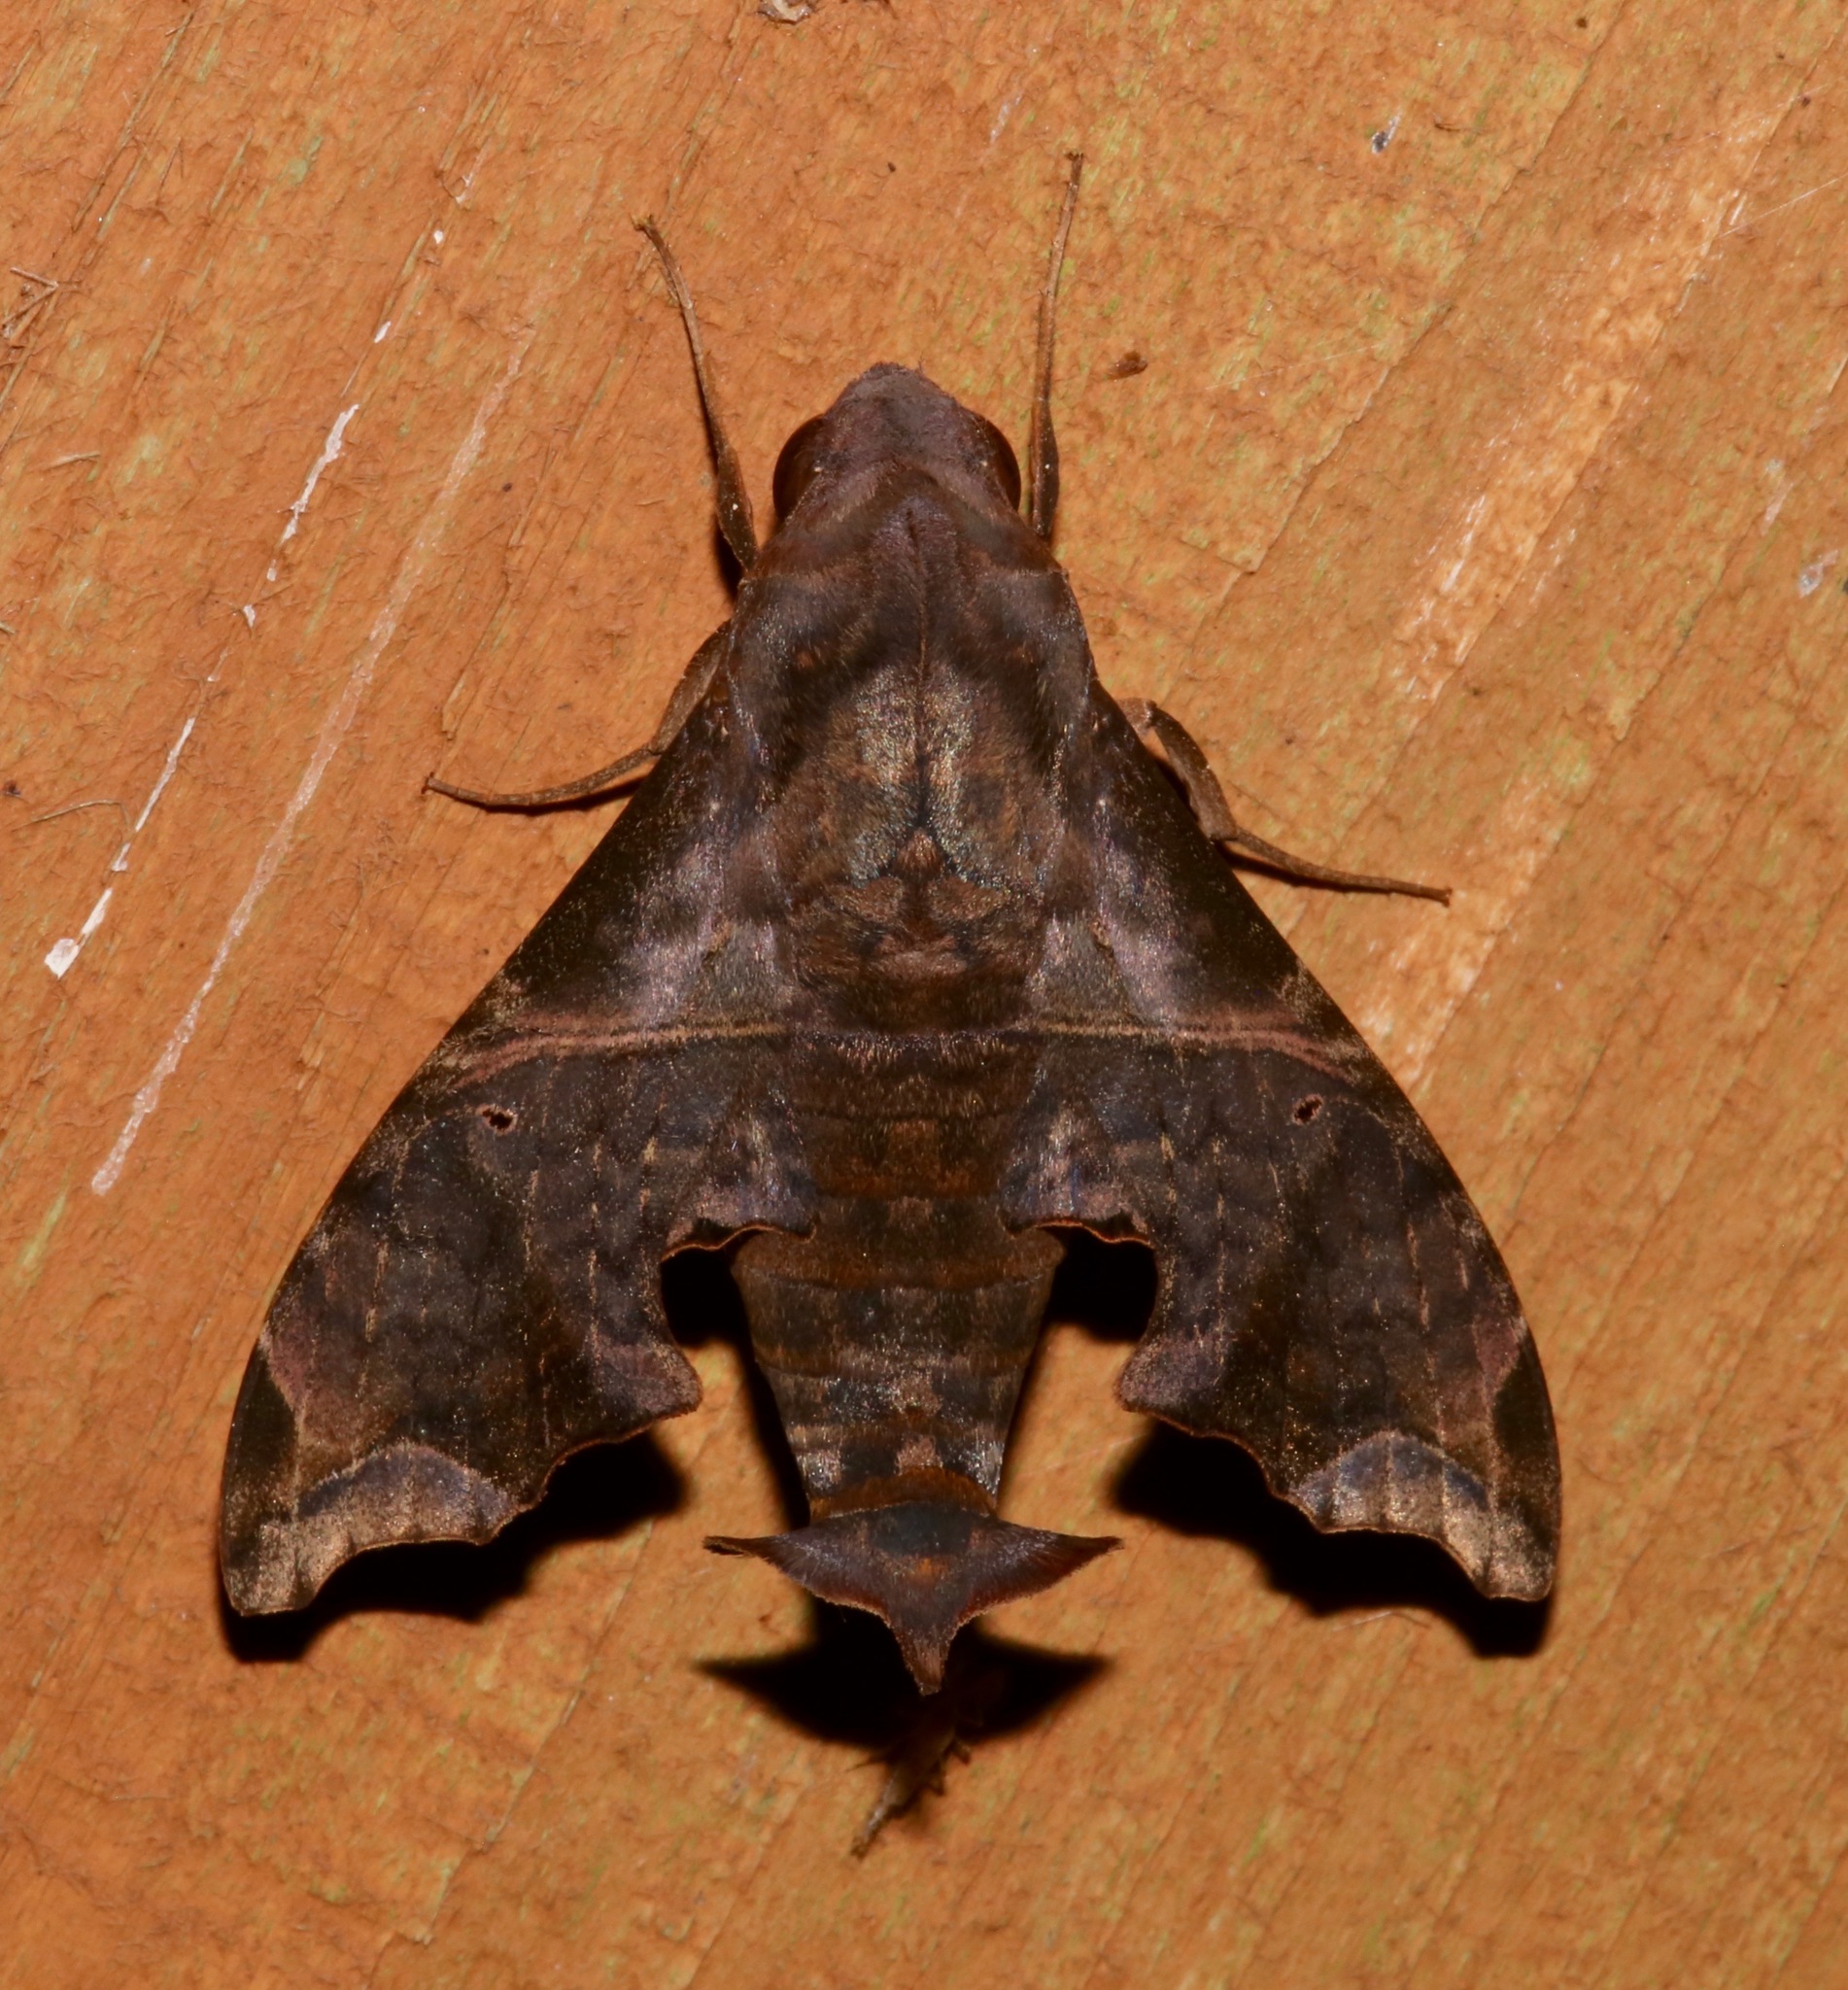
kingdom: Animalia
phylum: Arthropoda
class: Insecta
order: Lepidoptera
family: Sphingidae
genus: Enyo
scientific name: Enyo lugubris
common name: Mournful sphinx
